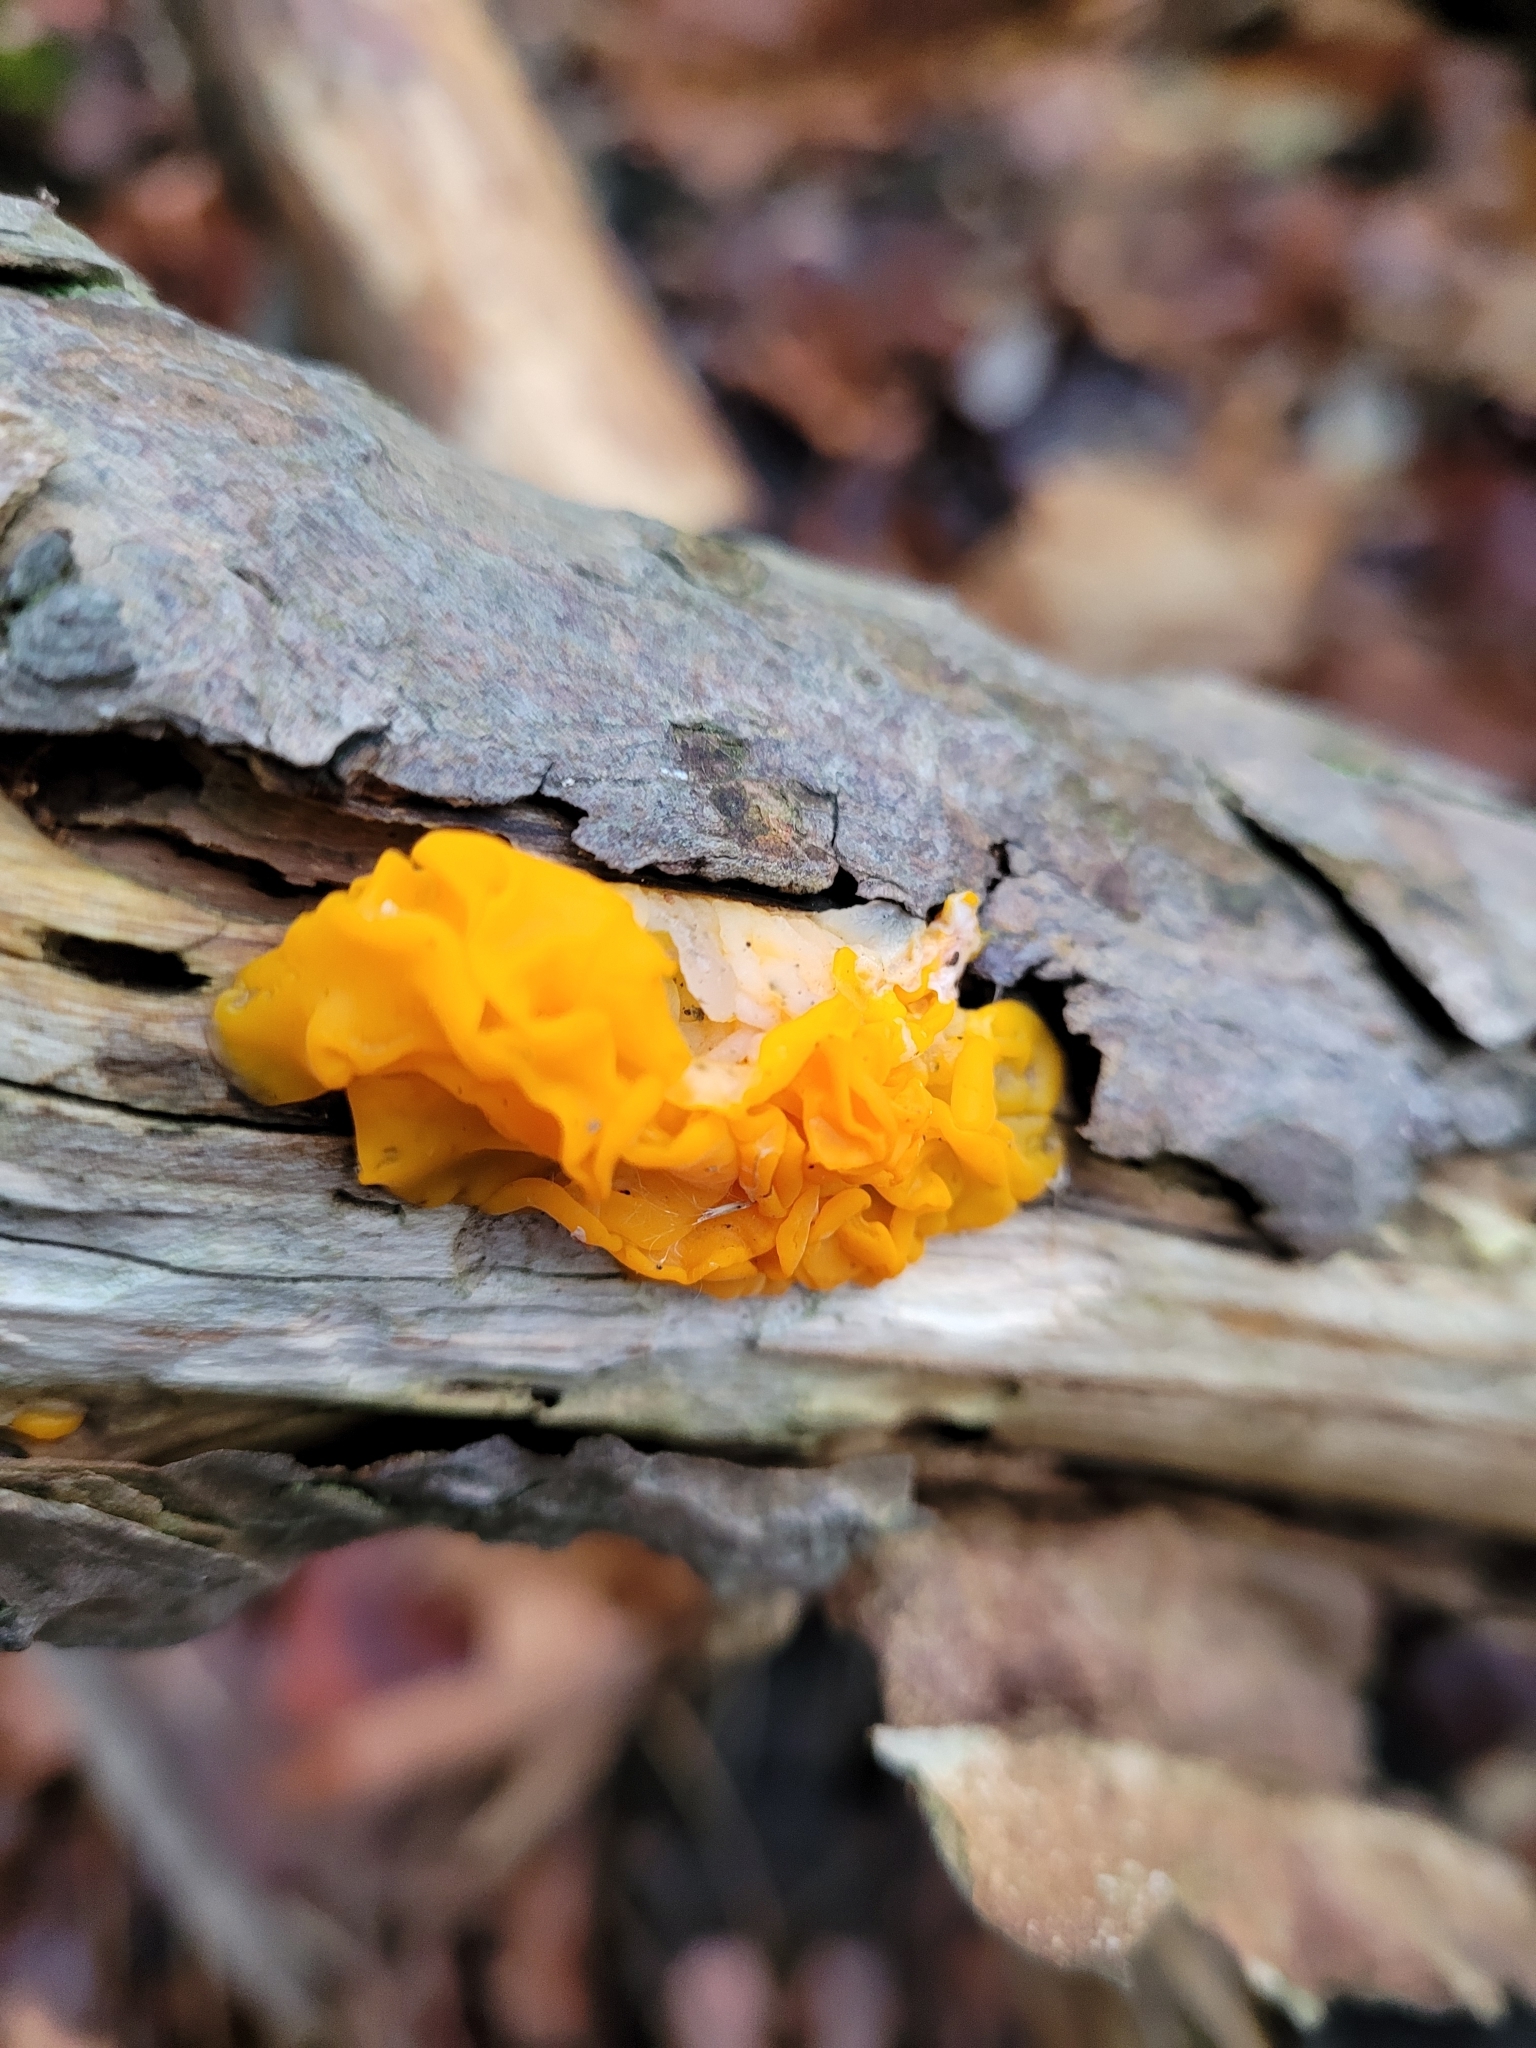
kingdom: Fungi
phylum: Basidiomycota
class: Dacrymycetes
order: Dacrymycetales
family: Dacrymycetaceae
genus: Dacrymyces
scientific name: Dacrymyces chrysospermus
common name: Orange jelly spot
